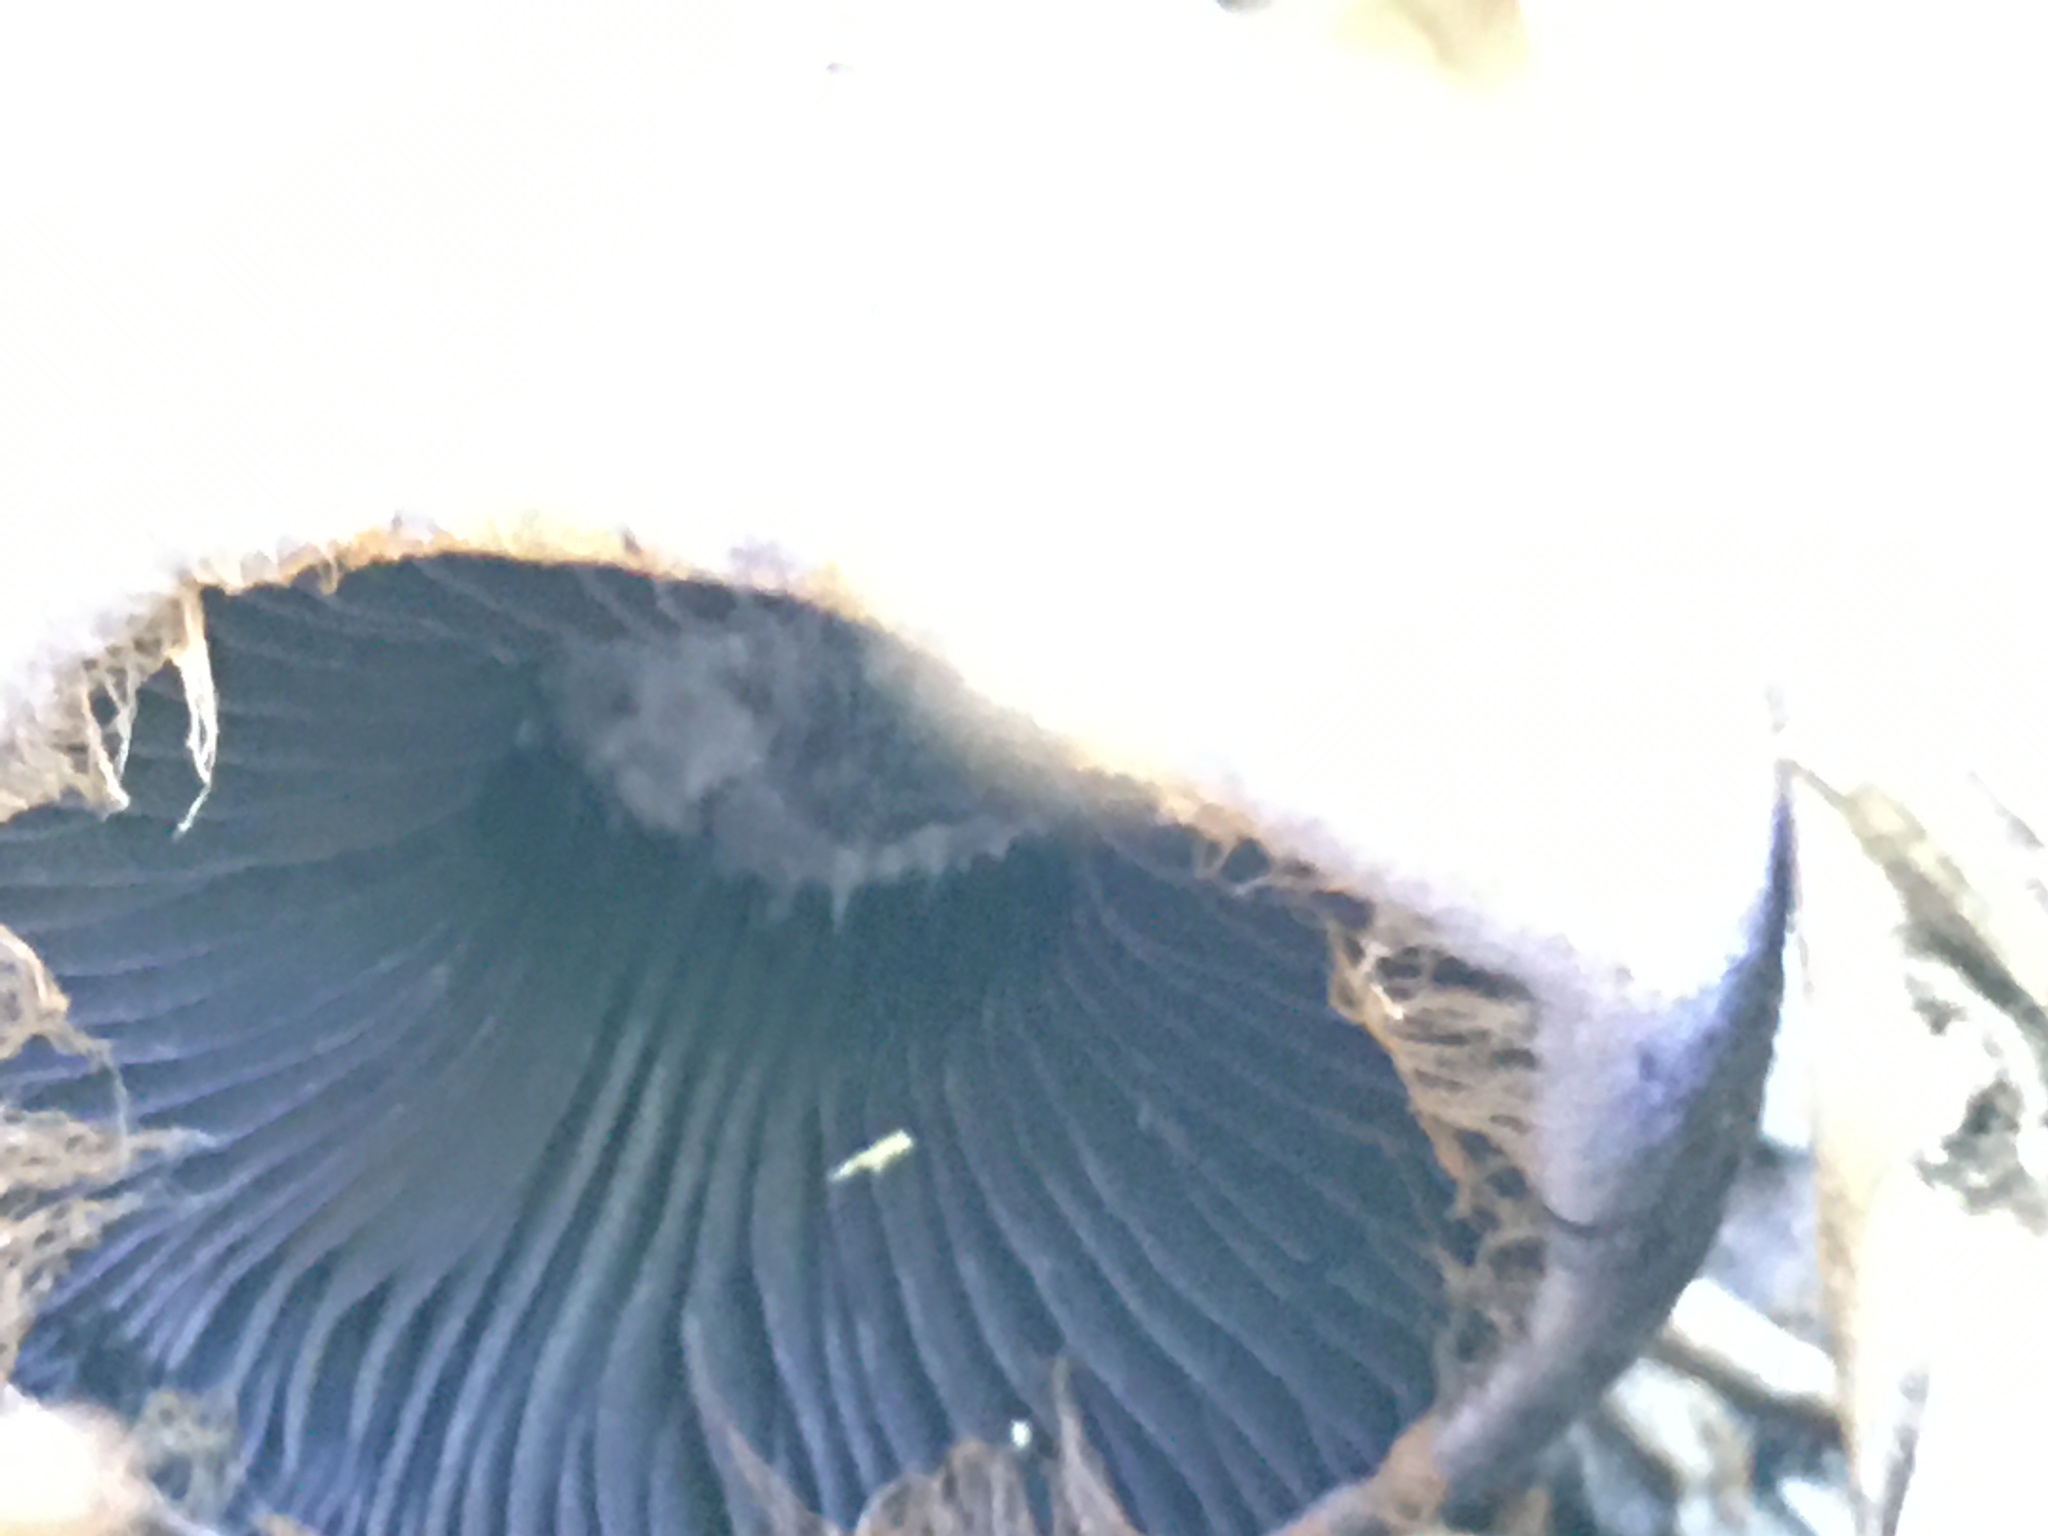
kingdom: Fungi
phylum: Basidiomycota
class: Agaricomycetes
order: Agaricales
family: Cortinariaceae
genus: Cortinarius
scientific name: Cortinarius violaceus
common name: Violet webcap
